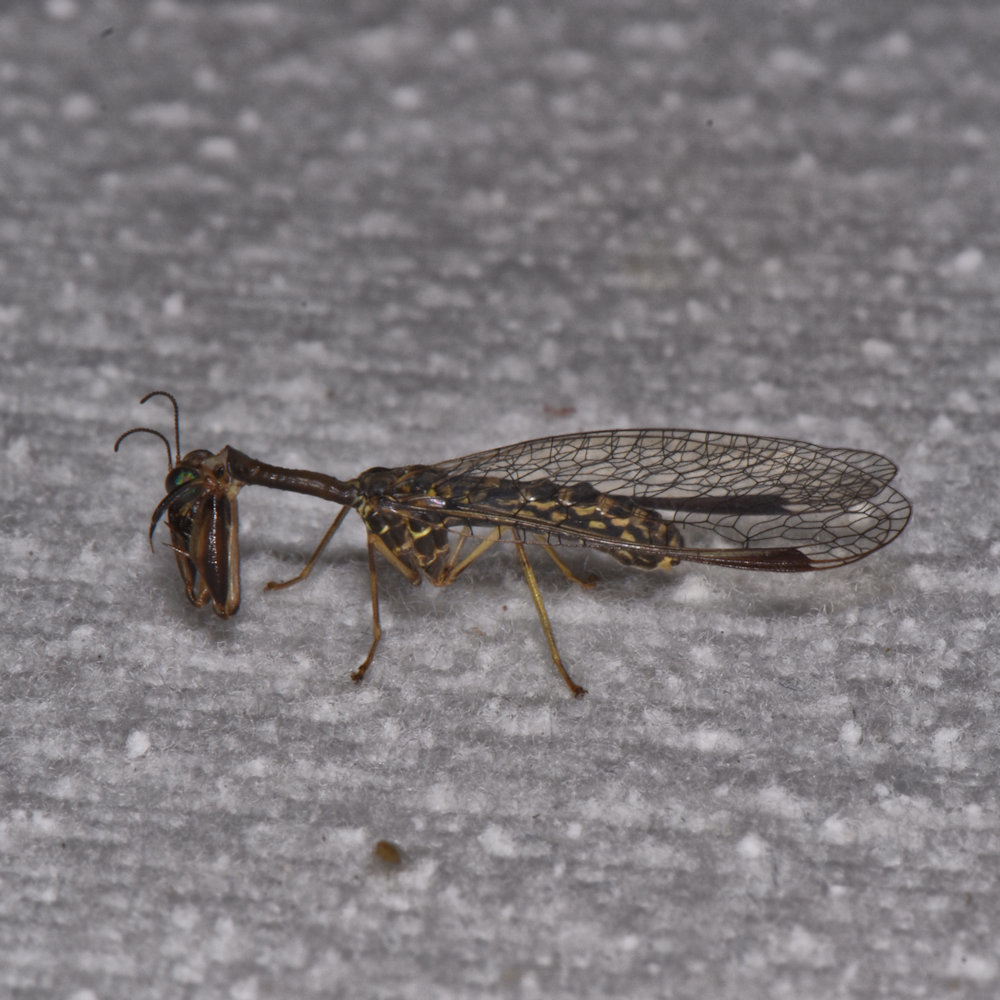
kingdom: Animalia
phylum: Arthropoda
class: Insecta
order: Neuroptera
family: Mantispidae
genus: Dicromantispa
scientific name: Dicromantispa sayi
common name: Say's mantidfly
